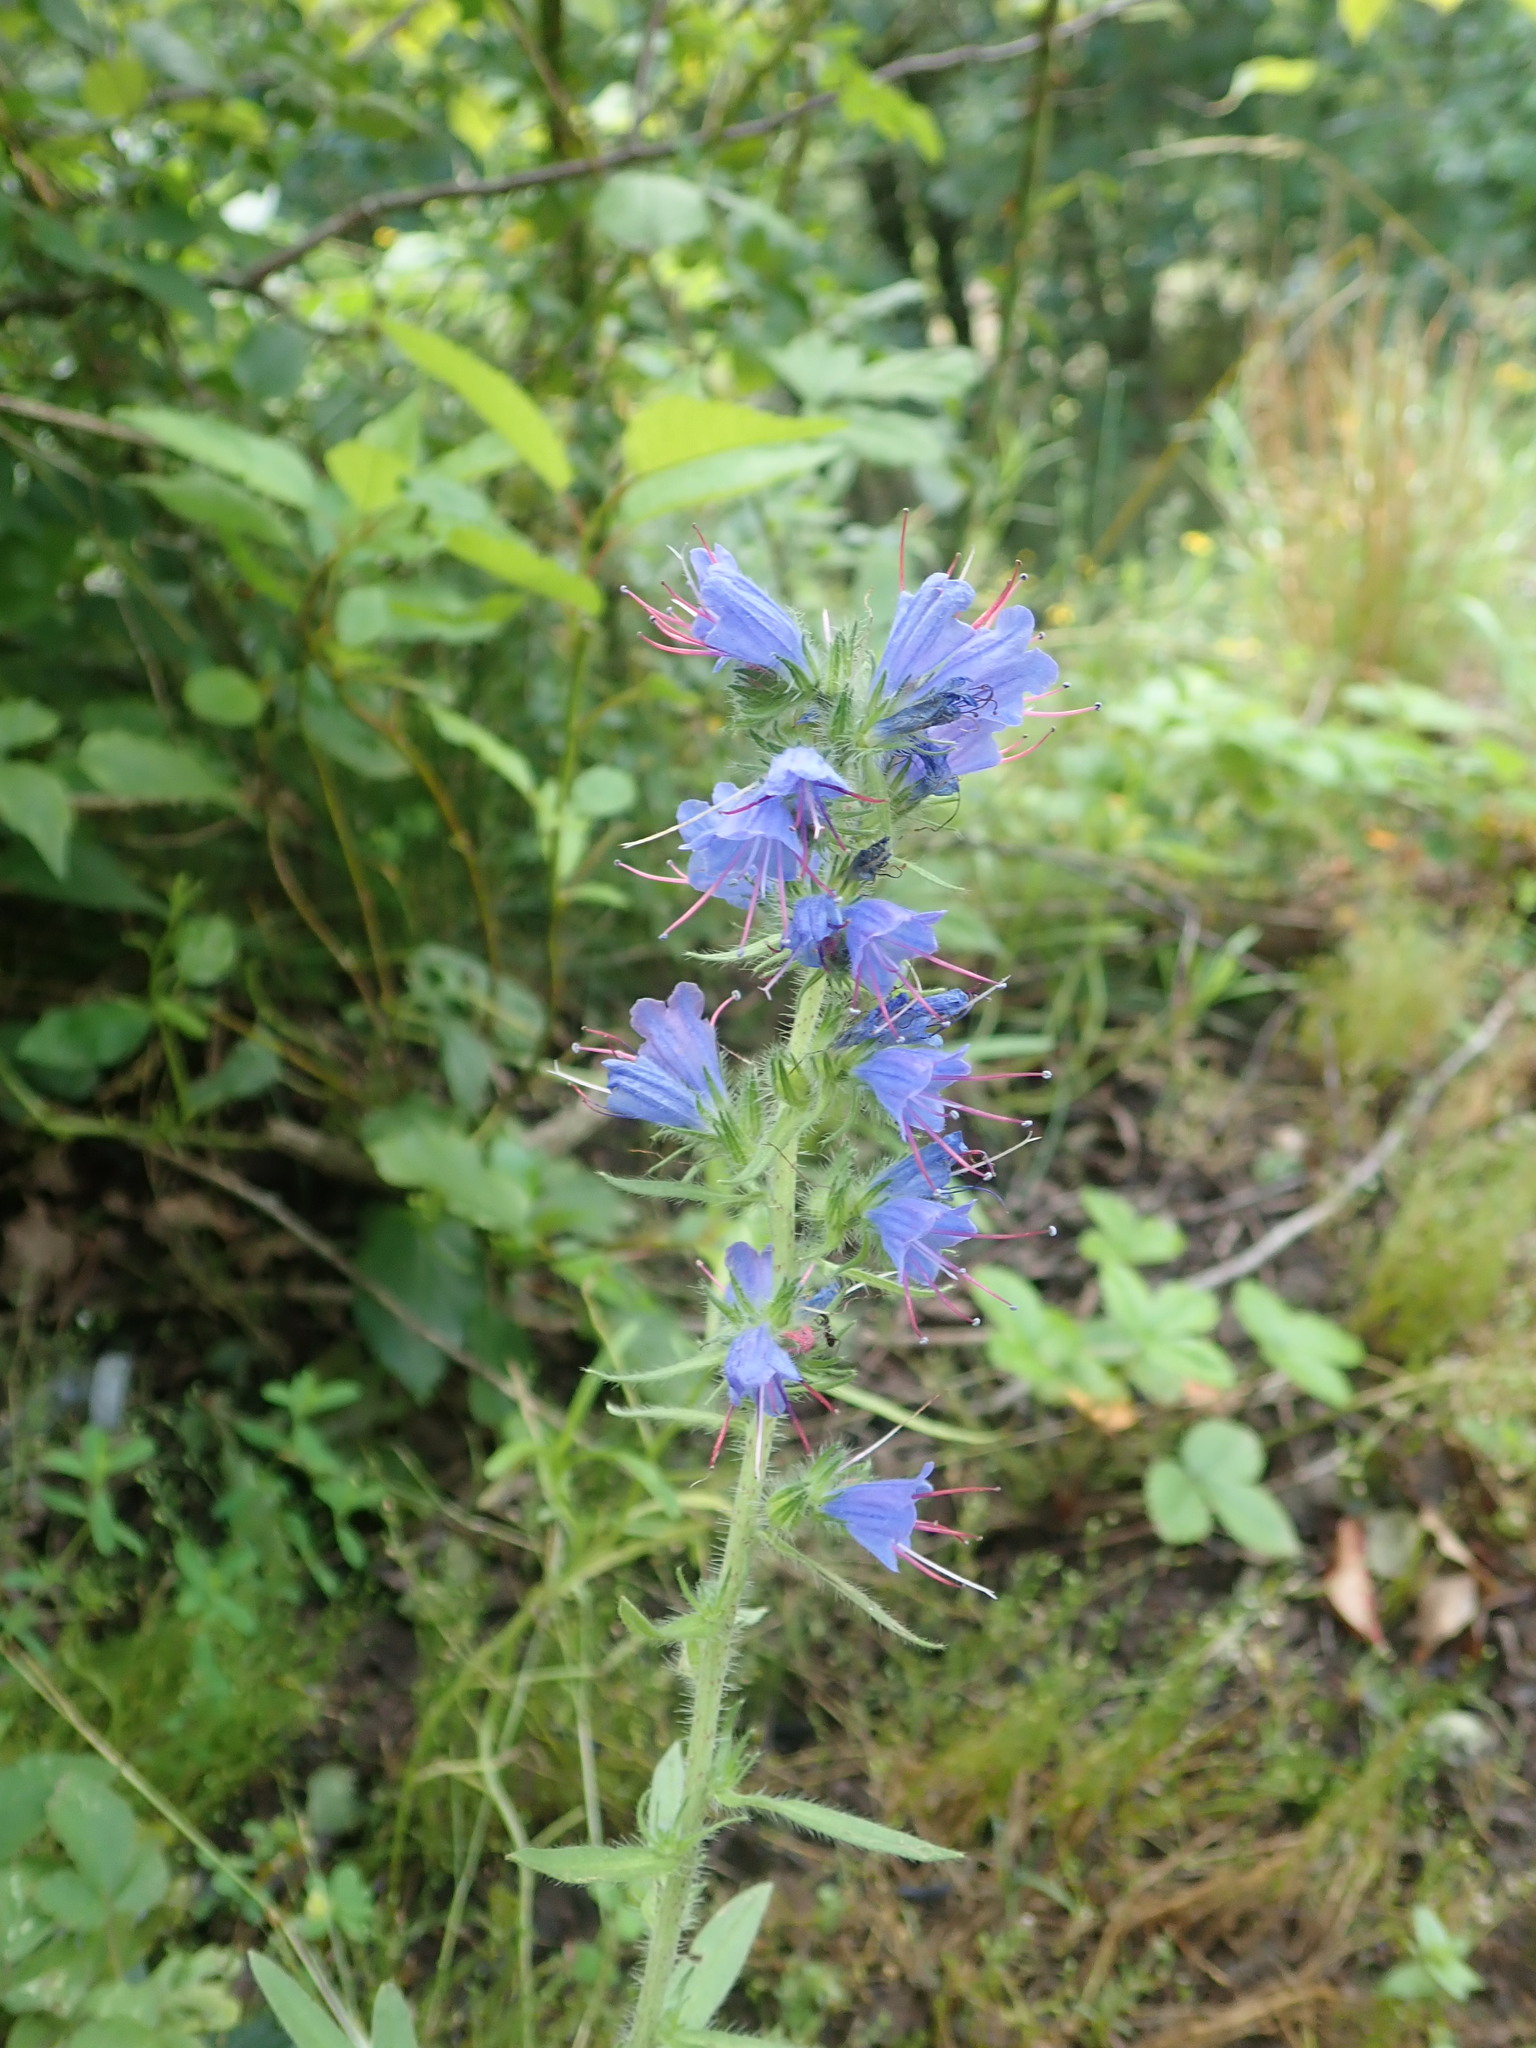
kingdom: Plantae
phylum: Tracheophyta
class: Magnoliopsida
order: Boraginales
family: Boraginaceae
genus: Echium
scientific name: Echium vulgare
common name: Common viper's bugloss
